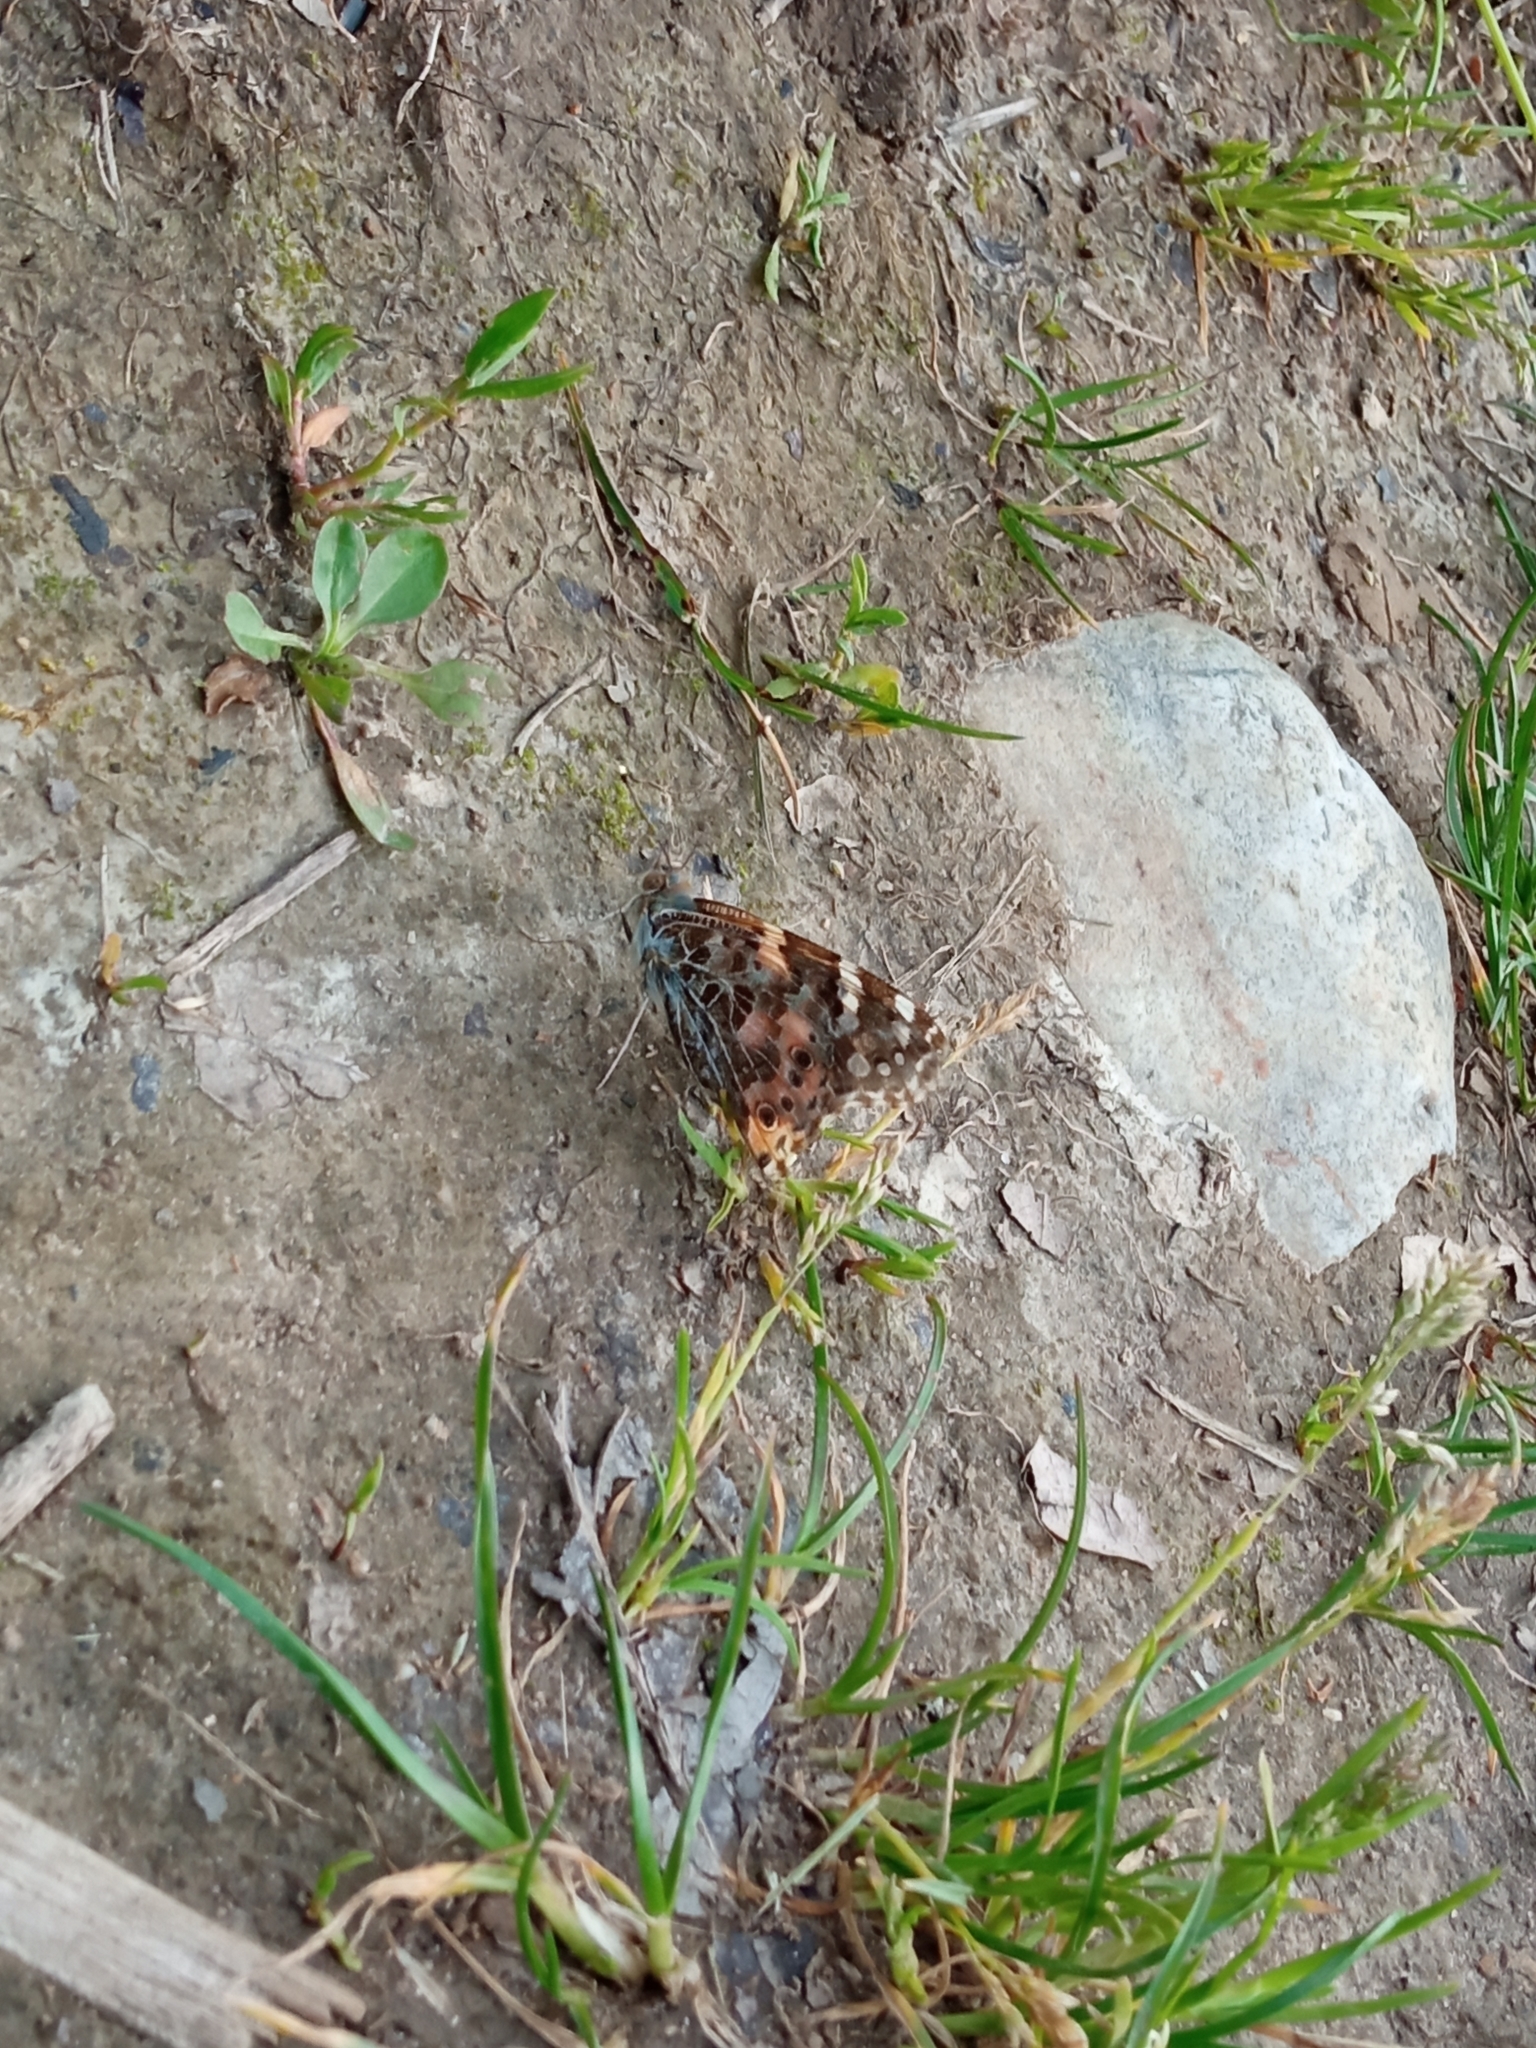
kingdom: Animalia
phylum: Arthropoda
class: Insecta
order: Lepidoptera
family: Nymphalidae
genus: Vanessa
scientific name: Vanessa cardui
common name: Painted lady
